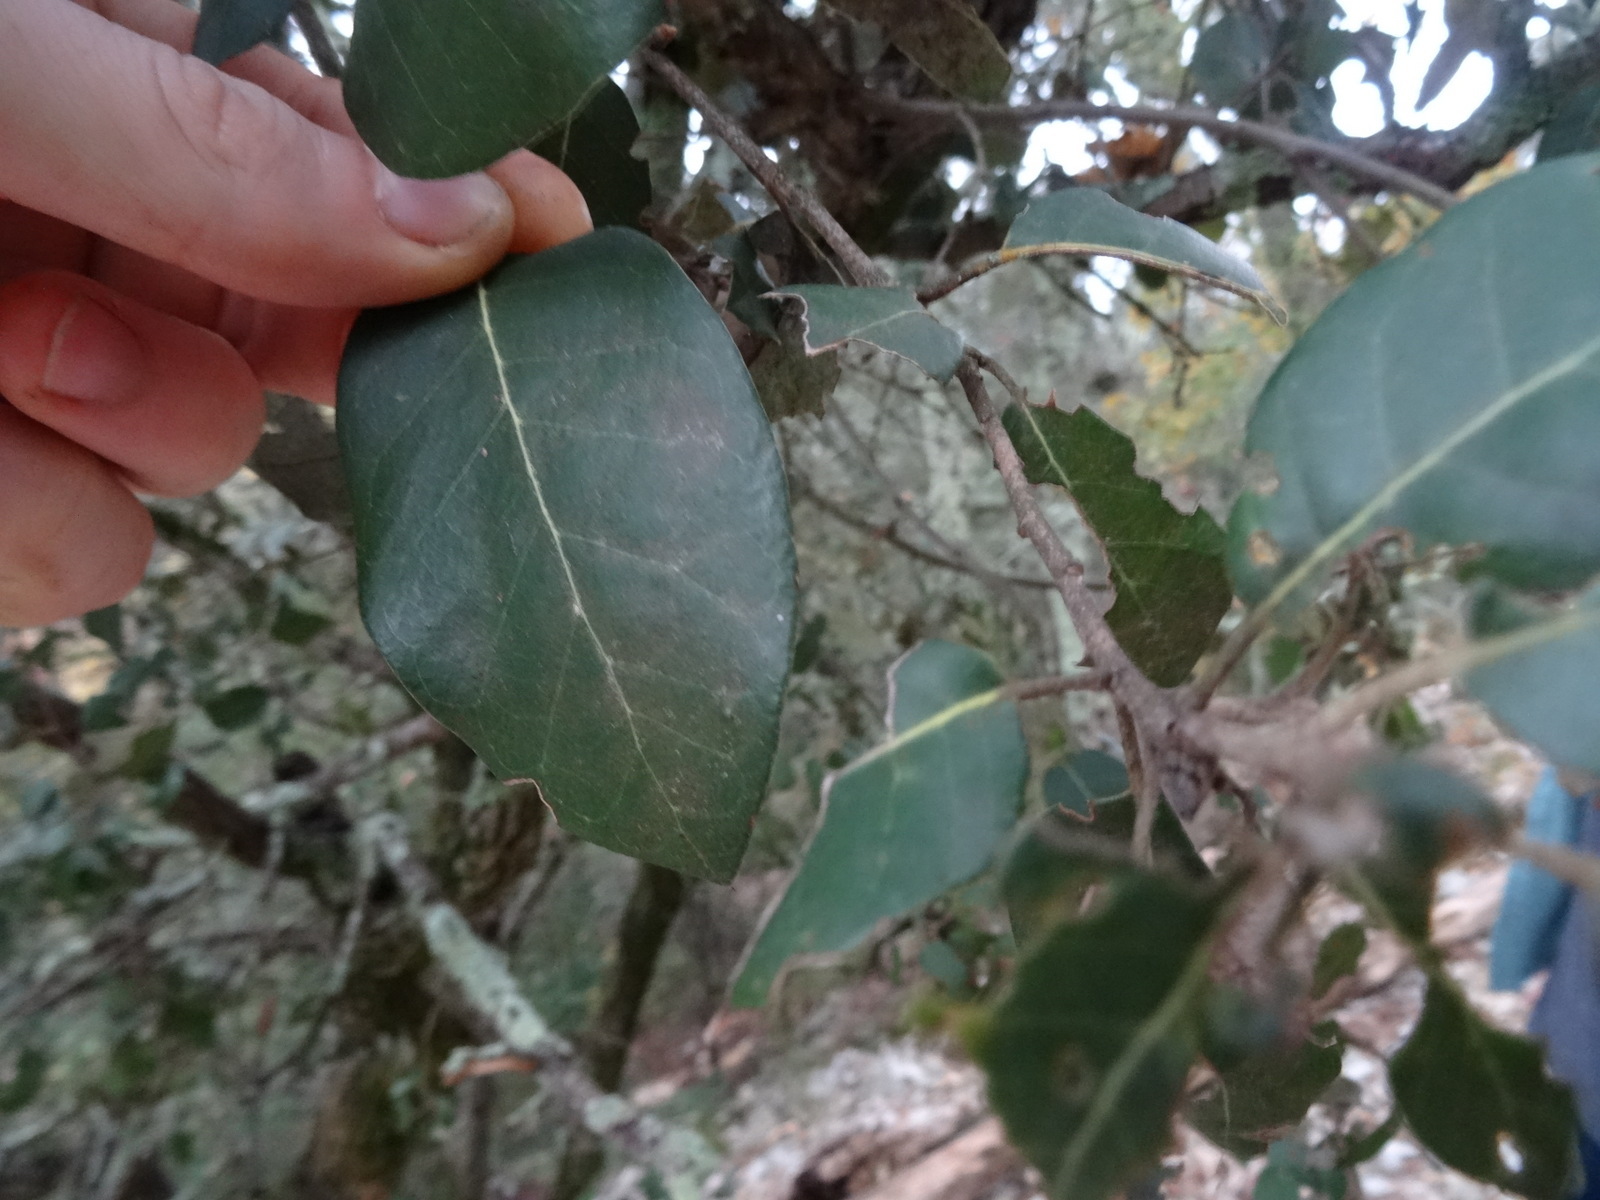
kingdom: Plantae
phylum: Tracheophyta
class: Magnoliopsida
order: Fagales
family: Fagaceae
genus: Quercus
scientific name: Quercus ilex
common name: Evergreen oak
